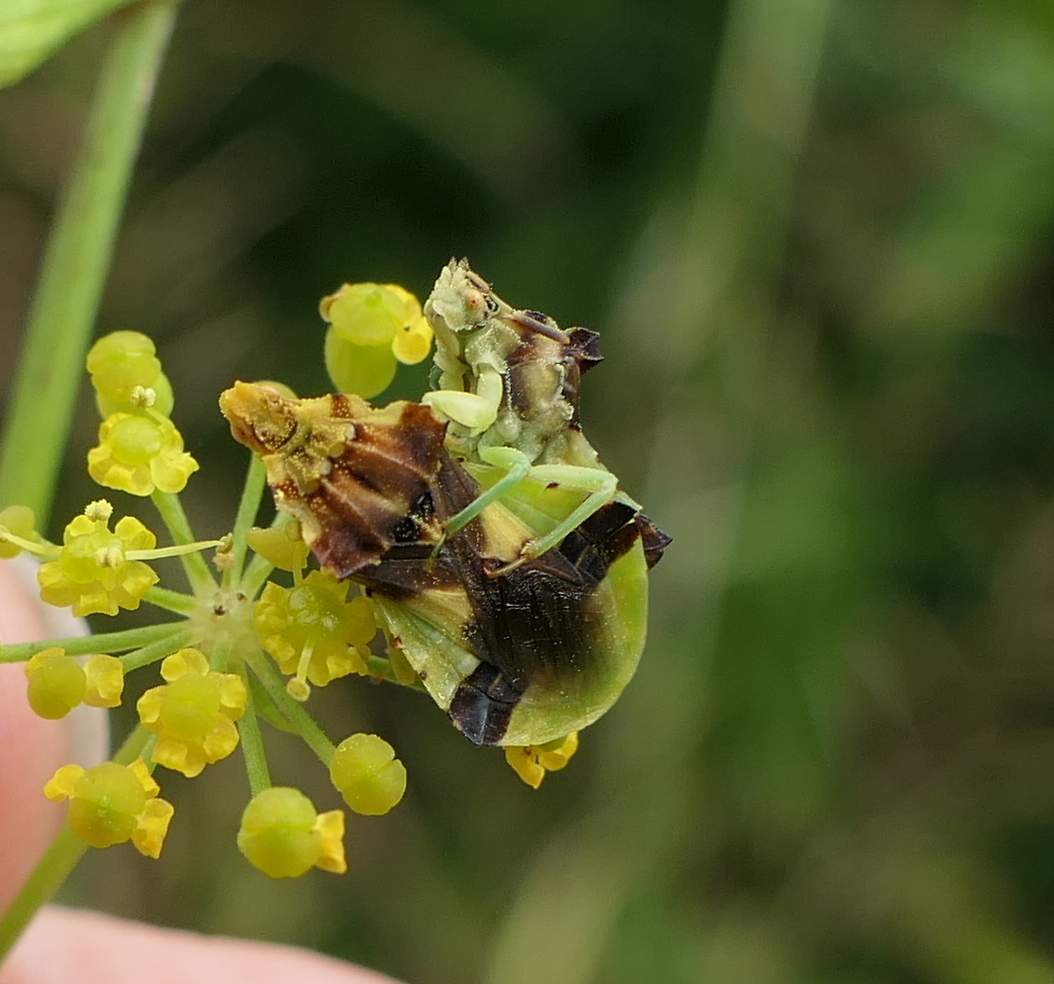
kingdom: Animalia
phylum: Arthropoda
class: Insecta
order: Hemiptera
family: Reduviidae
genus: Phymata
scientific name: Phymata americana
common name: Jagged ambush bug
